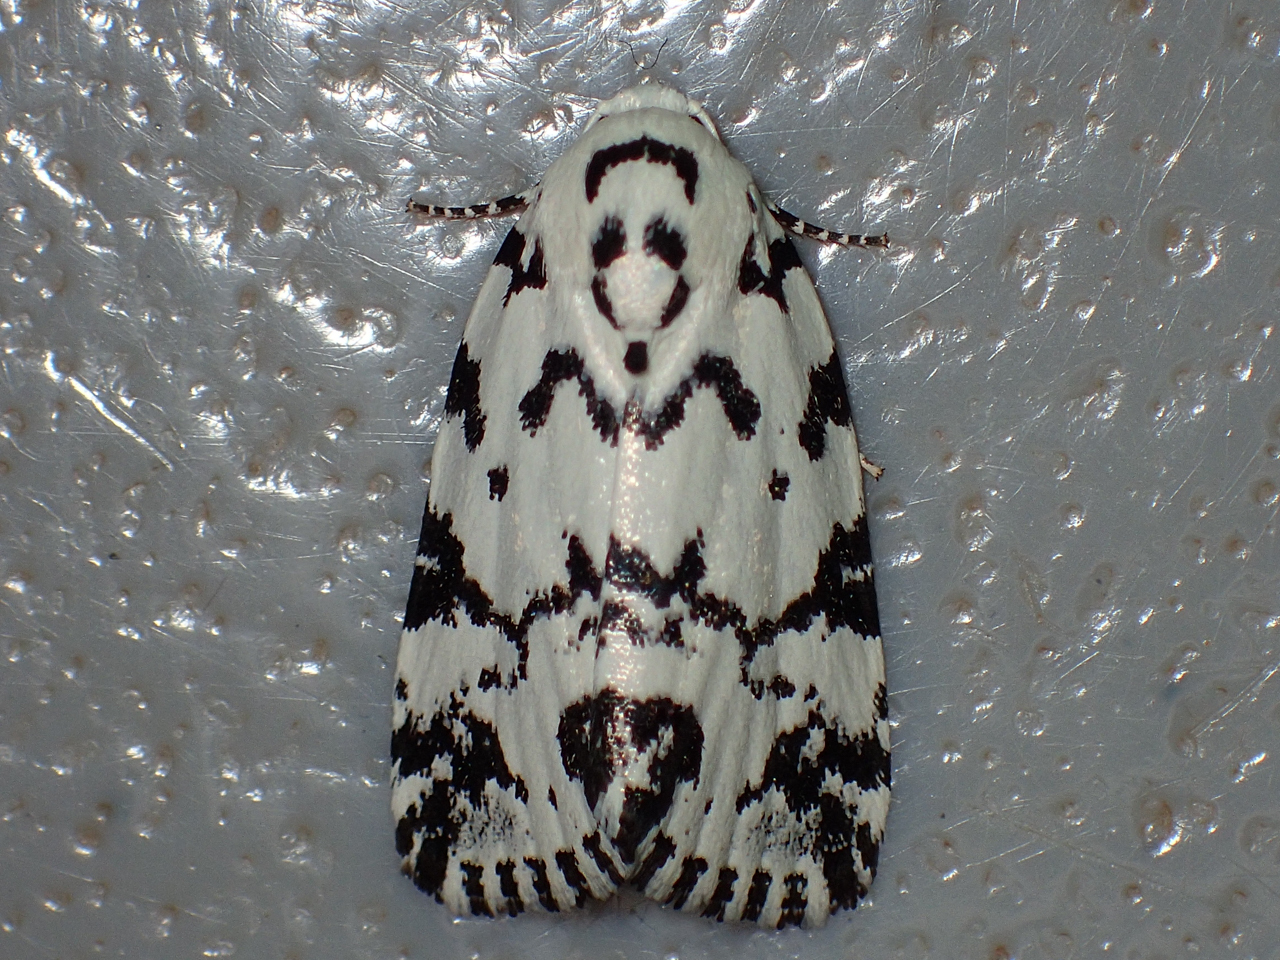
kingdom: Animalia
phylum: Arthropoda
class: Insecta
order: Lepidoptera
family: Noctuidae
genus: Polygrammate
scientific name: Polygrammate hebraeicum
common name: Hebrew moth
